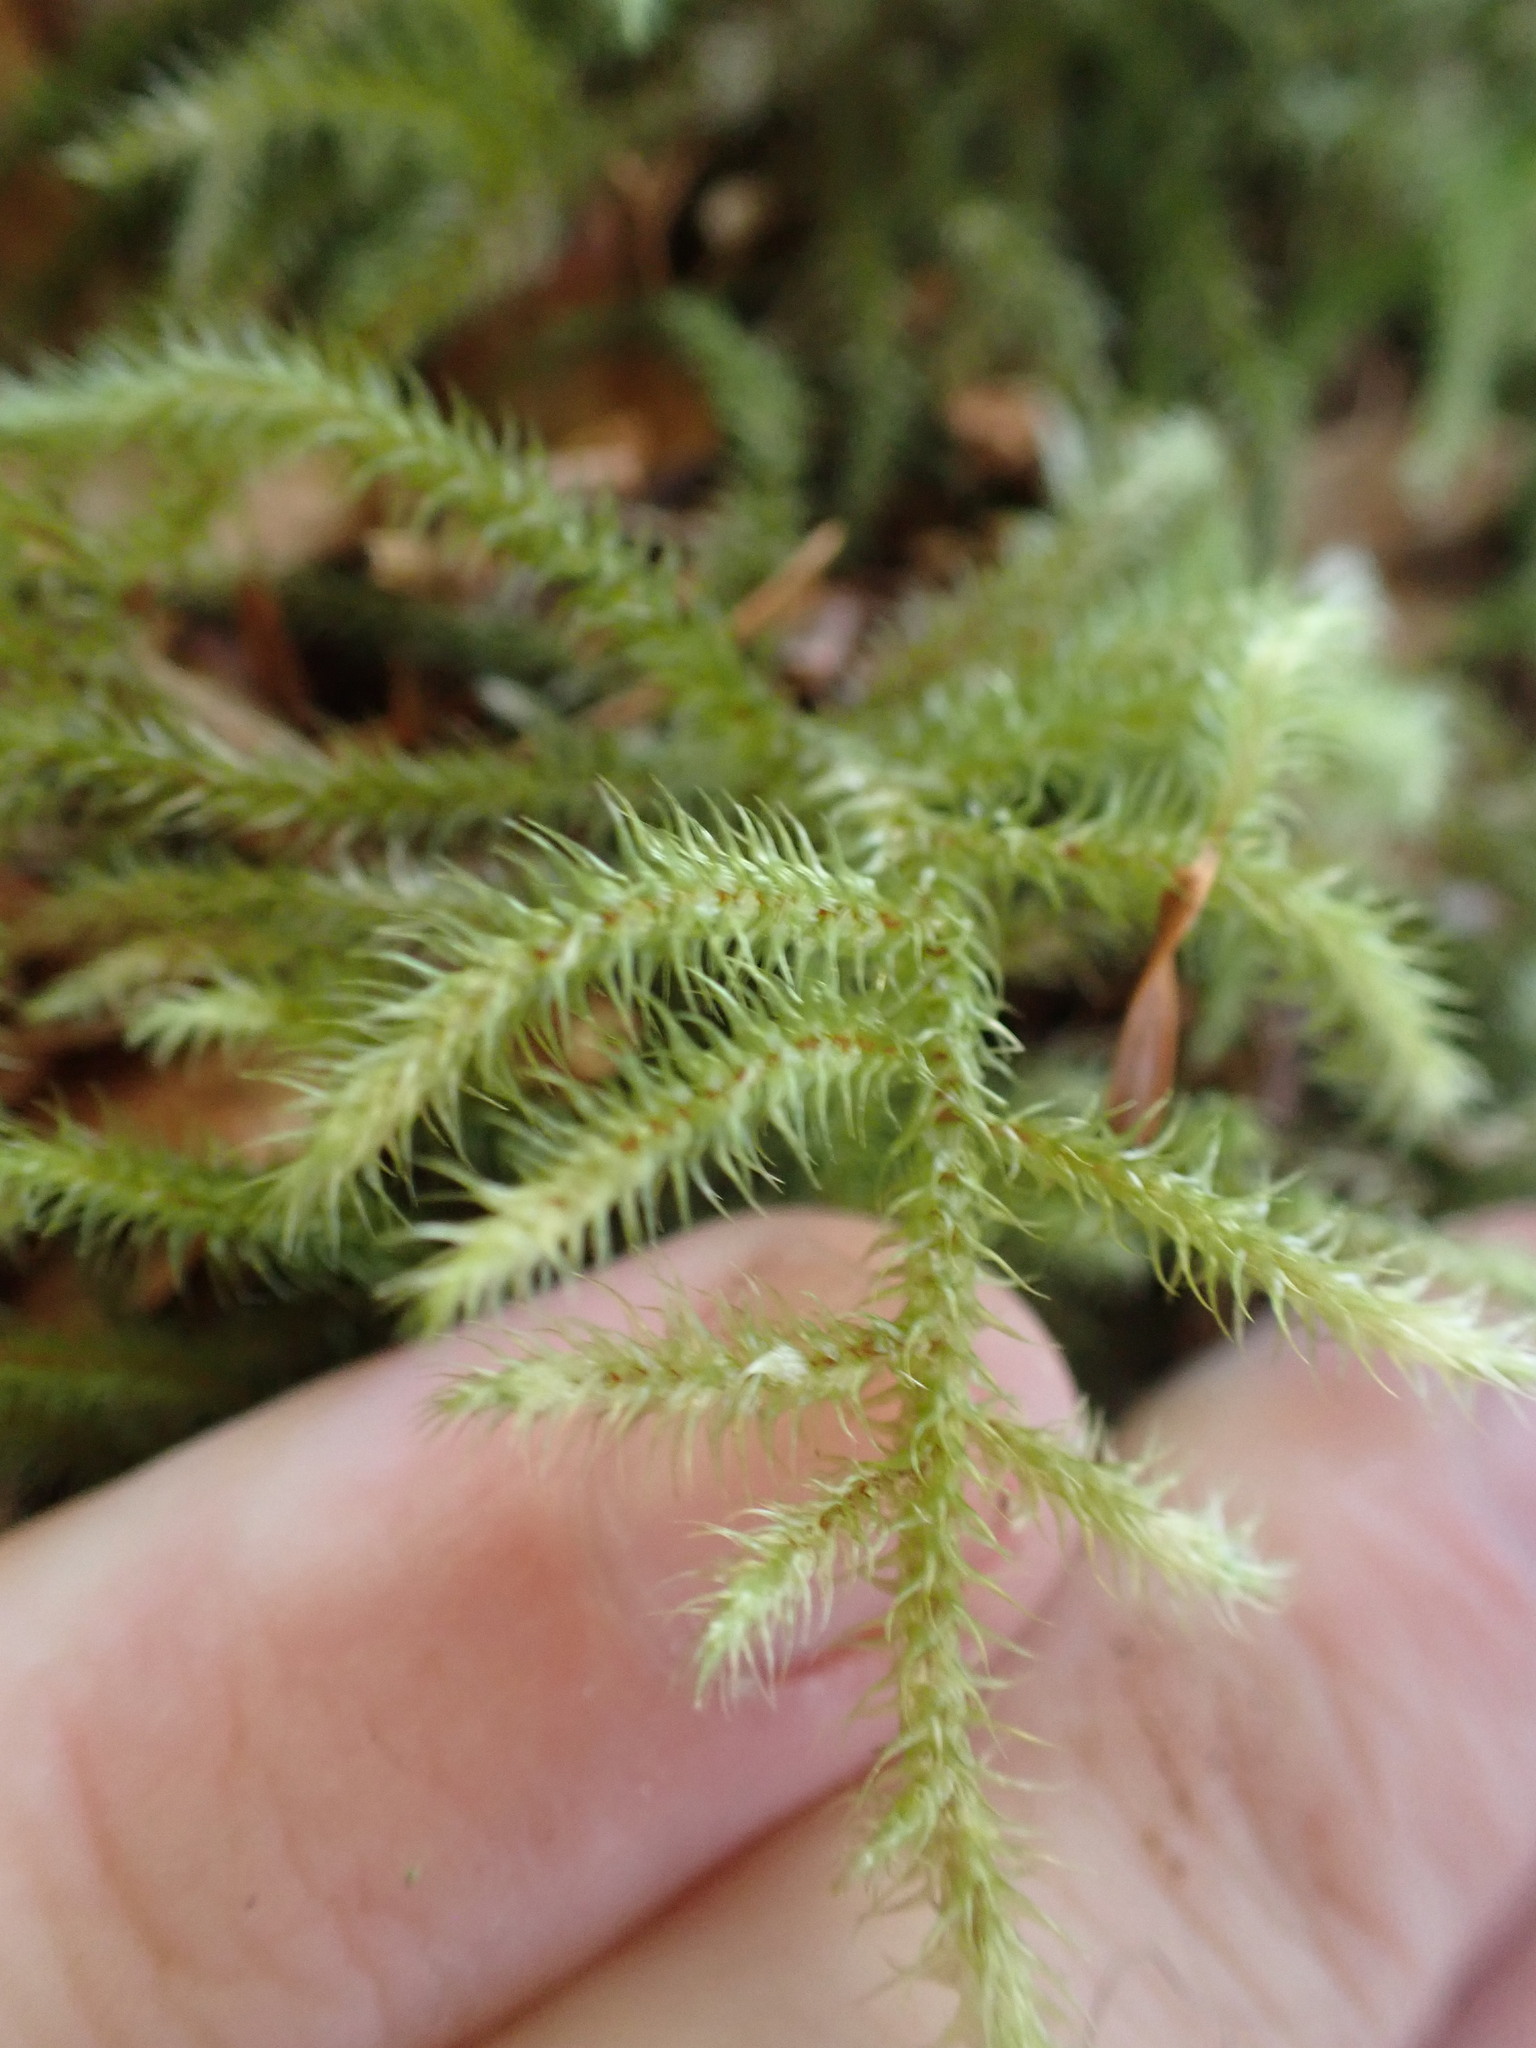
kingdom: Plantae
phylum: Bryophyta
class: Bryopsida
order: Hypnales
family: Hylocomiaceae
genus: Rhytidiadelphus
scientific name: Rhytidiadelphus loreus
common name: Lanky moss
